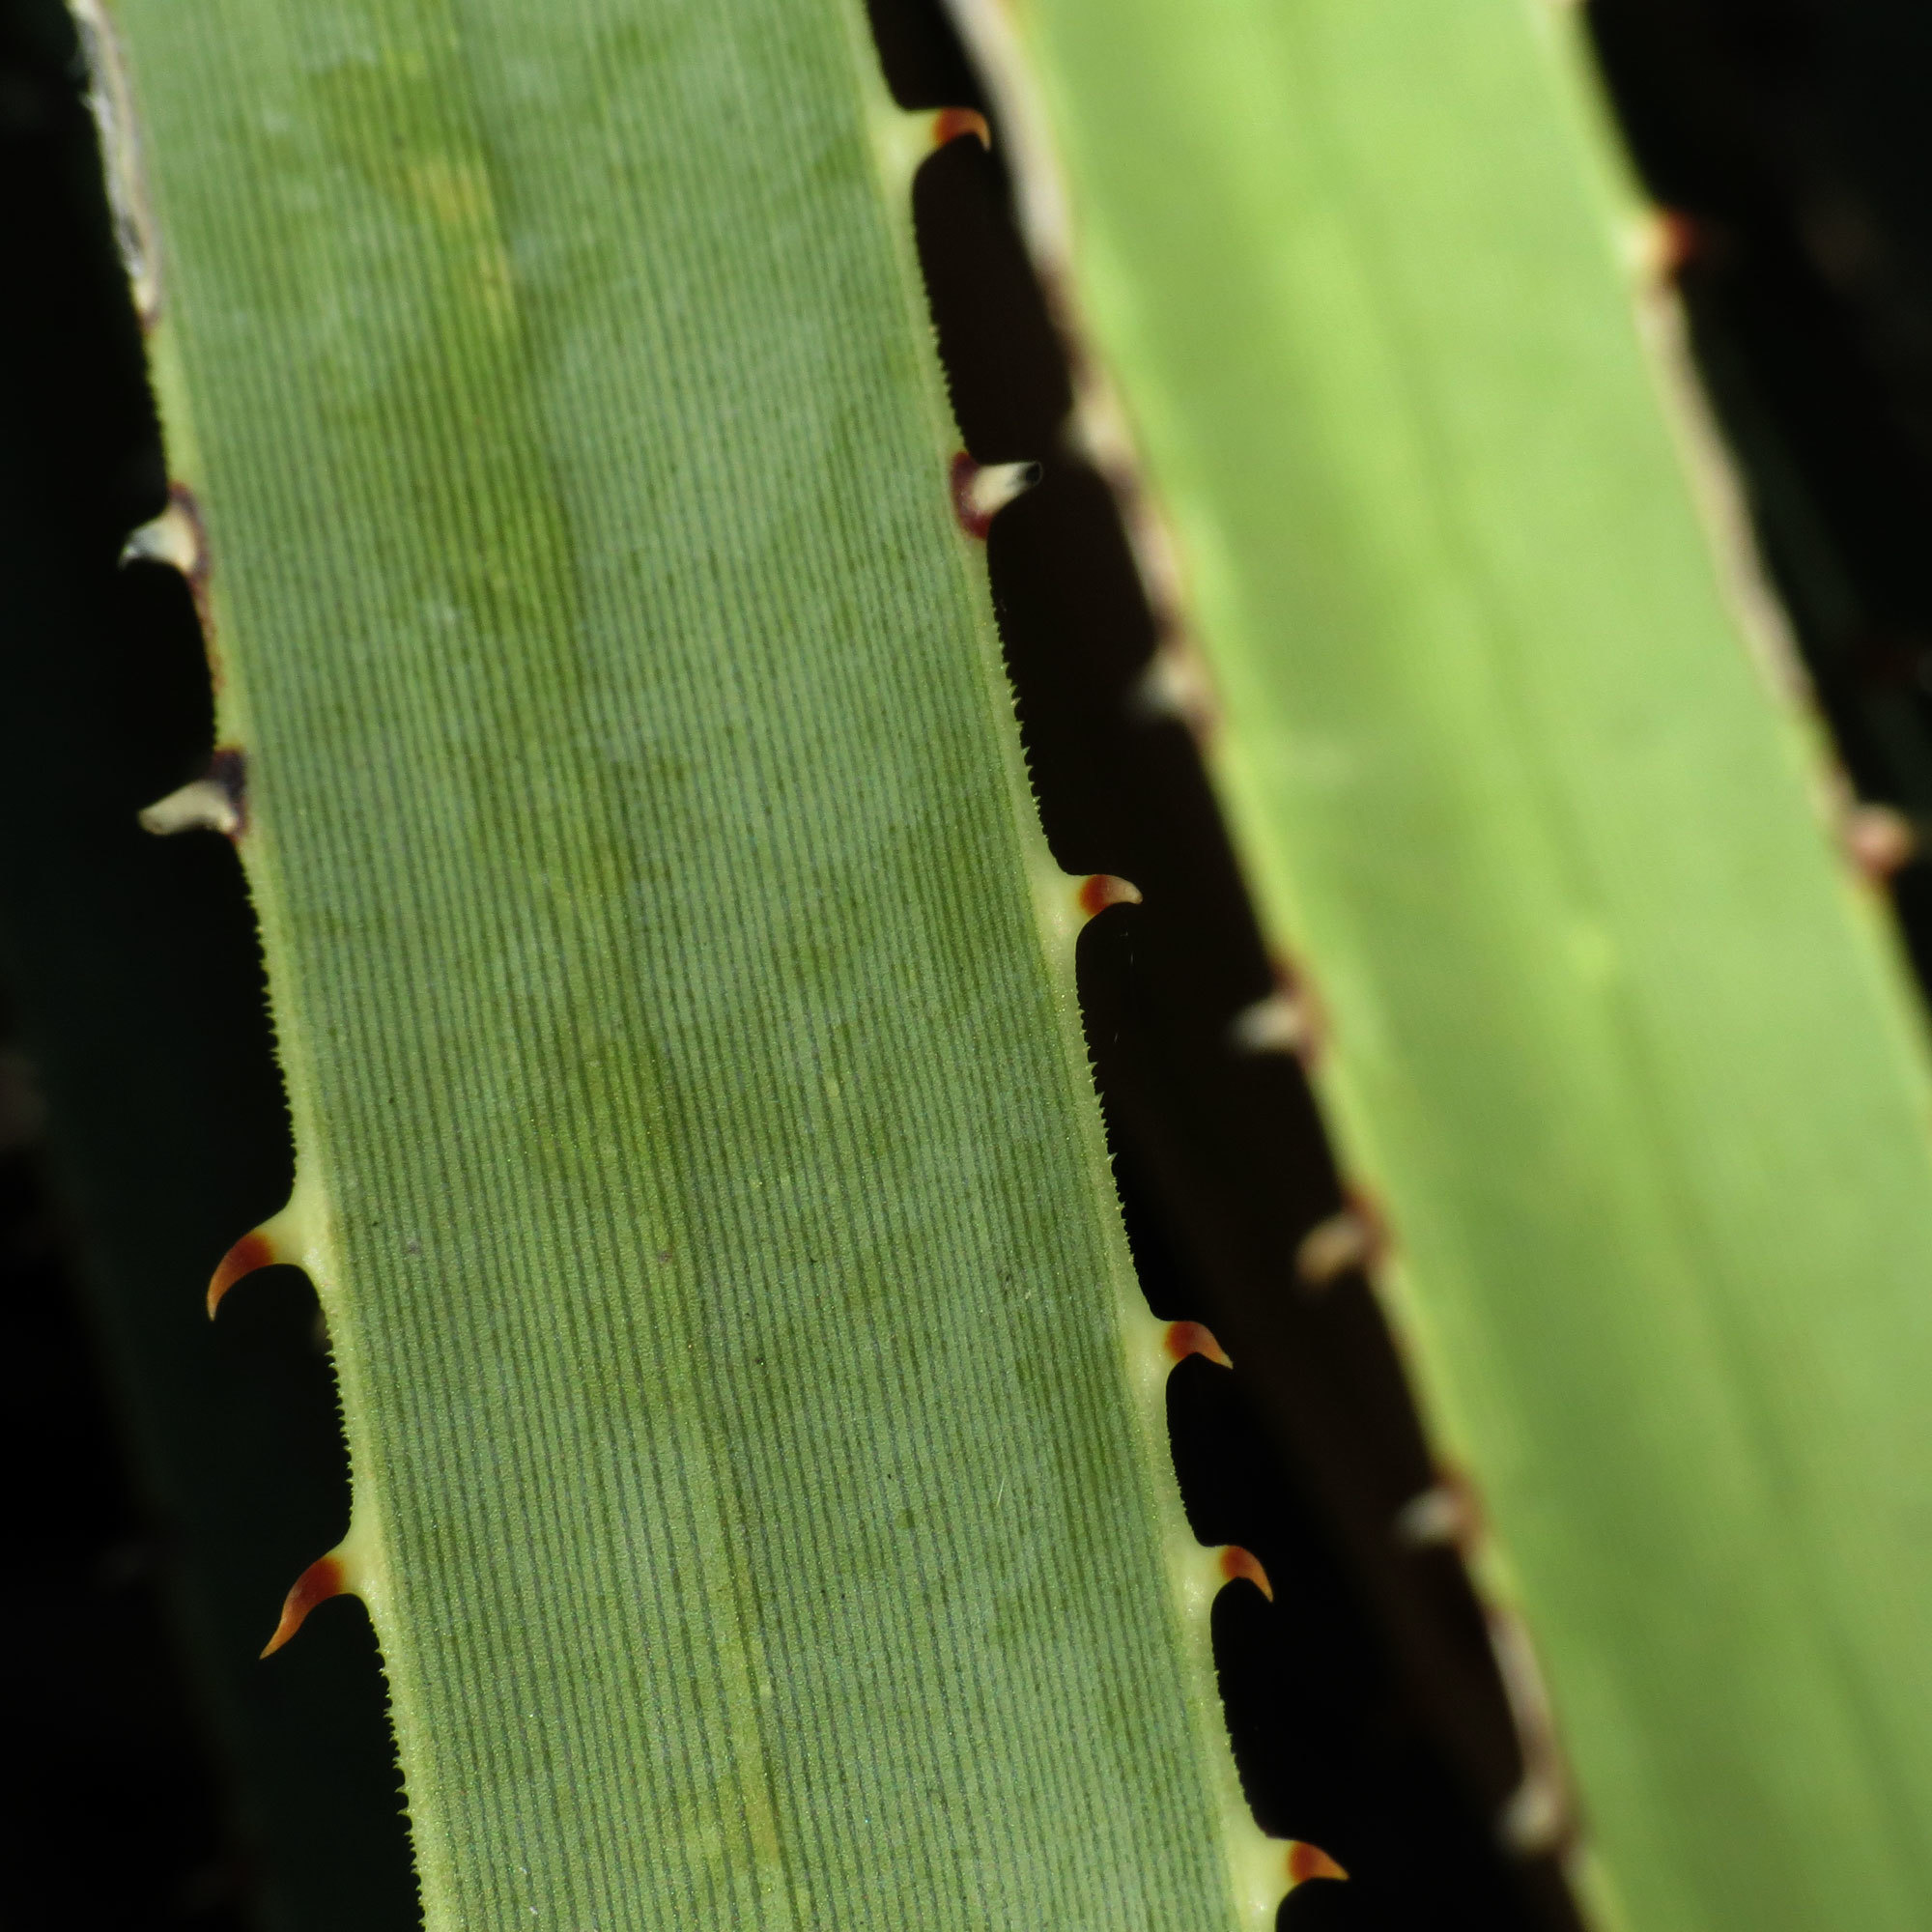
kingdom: Plantae
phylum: Tracheophyta
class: Liliopsida
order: Asparagales
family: Asparagaceae
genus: Dasylirion
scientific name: Dasylirion wheeleri
